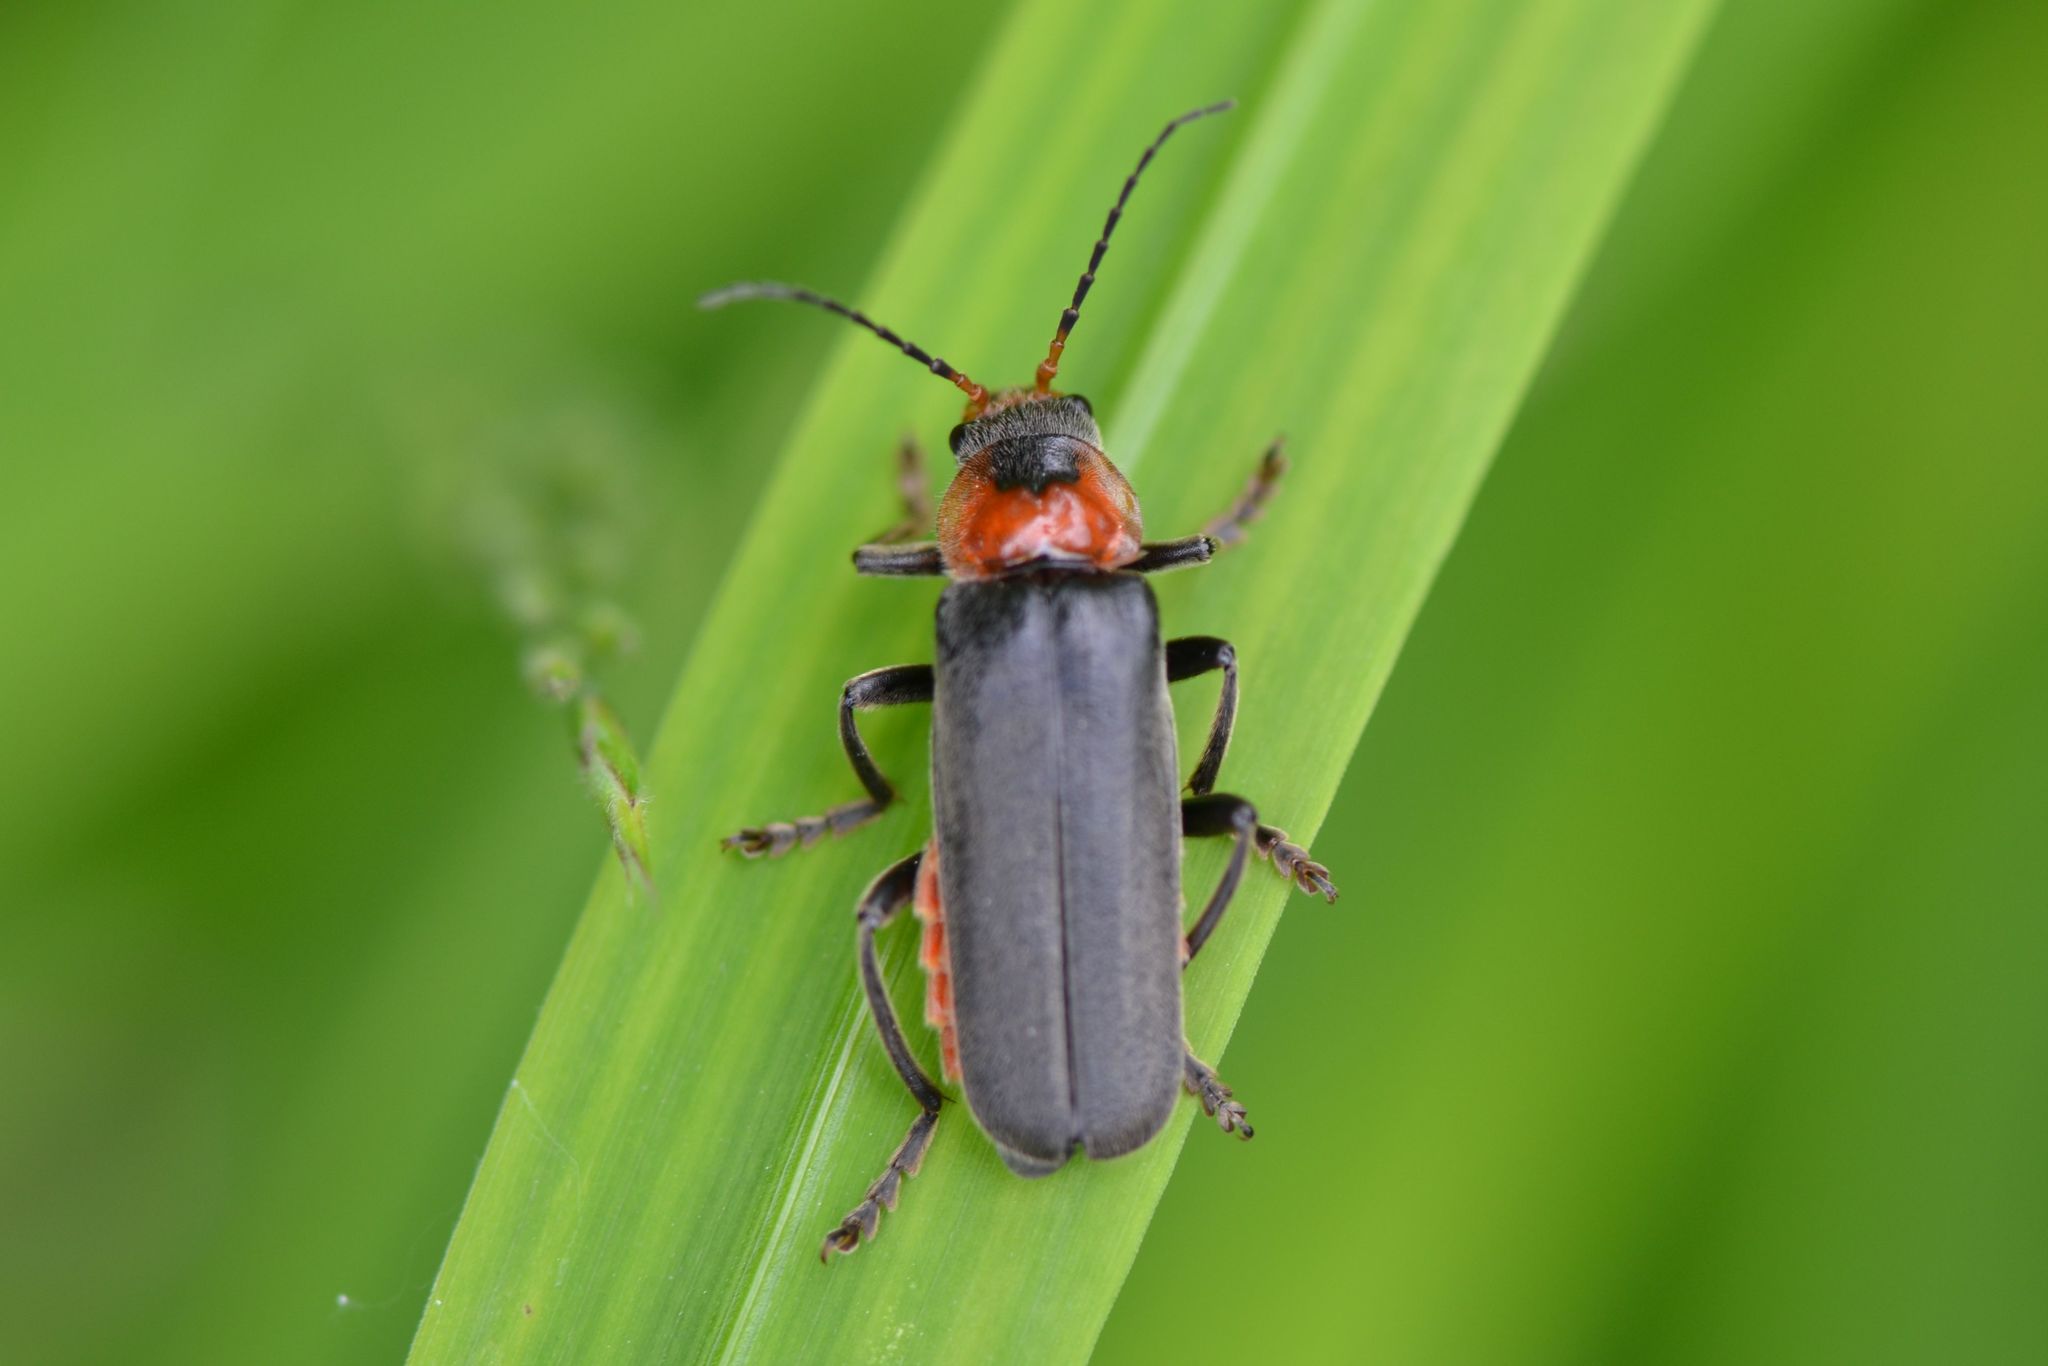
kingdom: Animalia
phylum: Arthropoda
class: Insecta
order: Coleoptera
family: Cantharidae
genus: Cantharis
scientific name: Cantharis fusca
